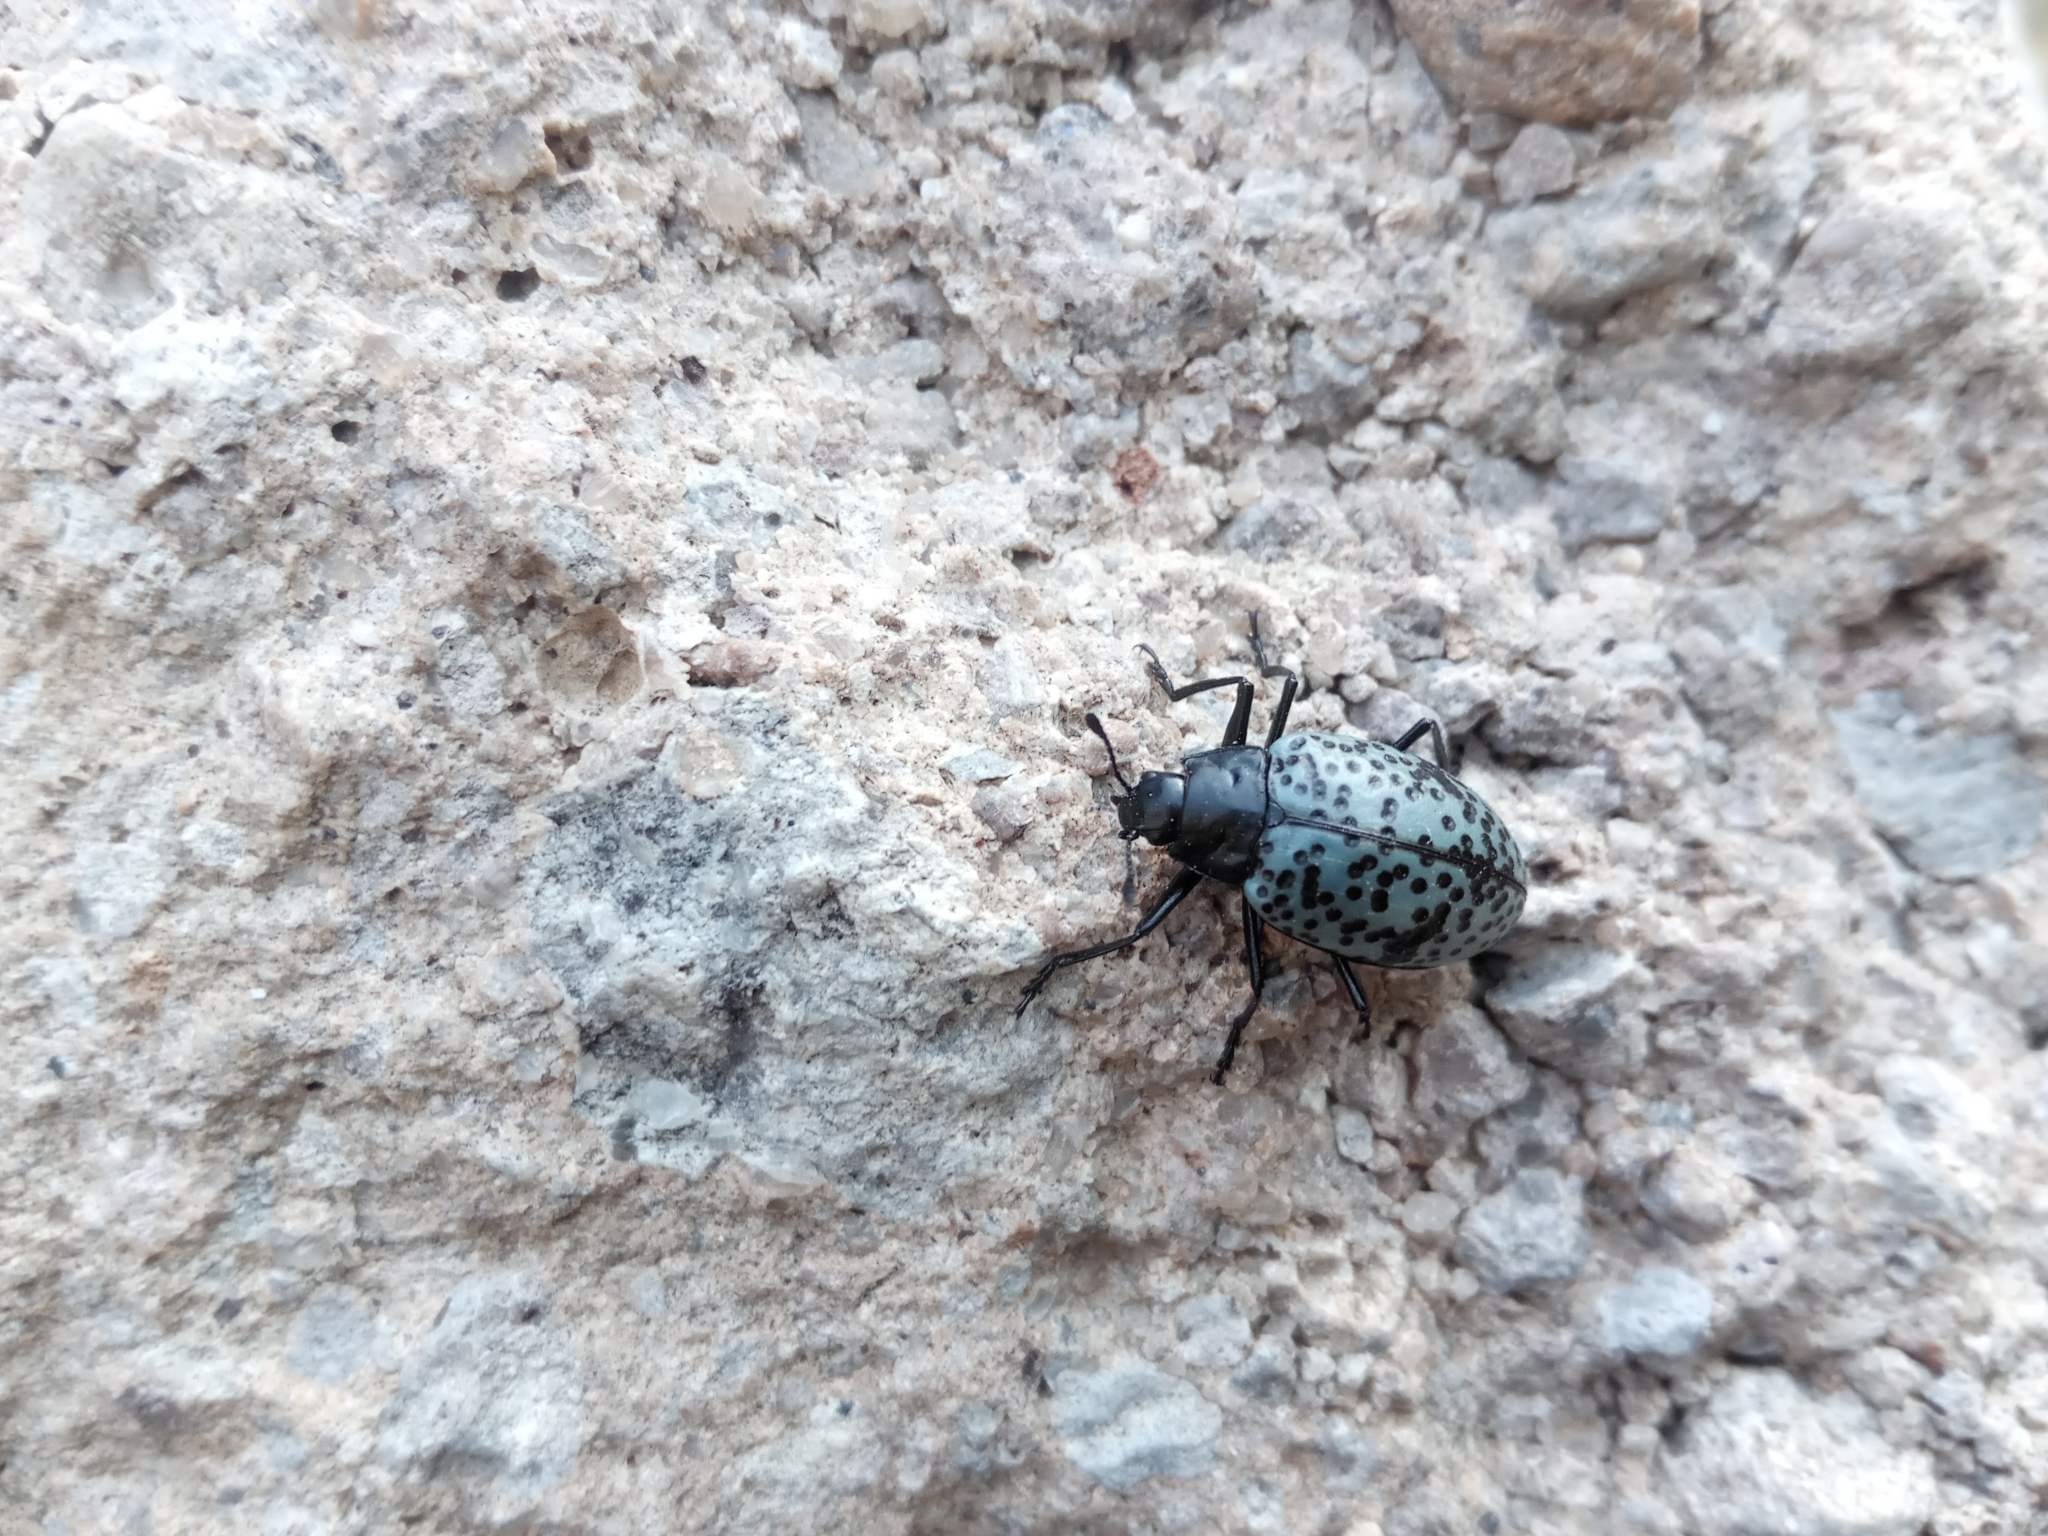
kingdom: Animalia
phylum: Arthropoda
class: Insecta
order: Coleoptera
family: Erotylidae
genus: Gibbifer
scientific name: Gibbifer californicus
